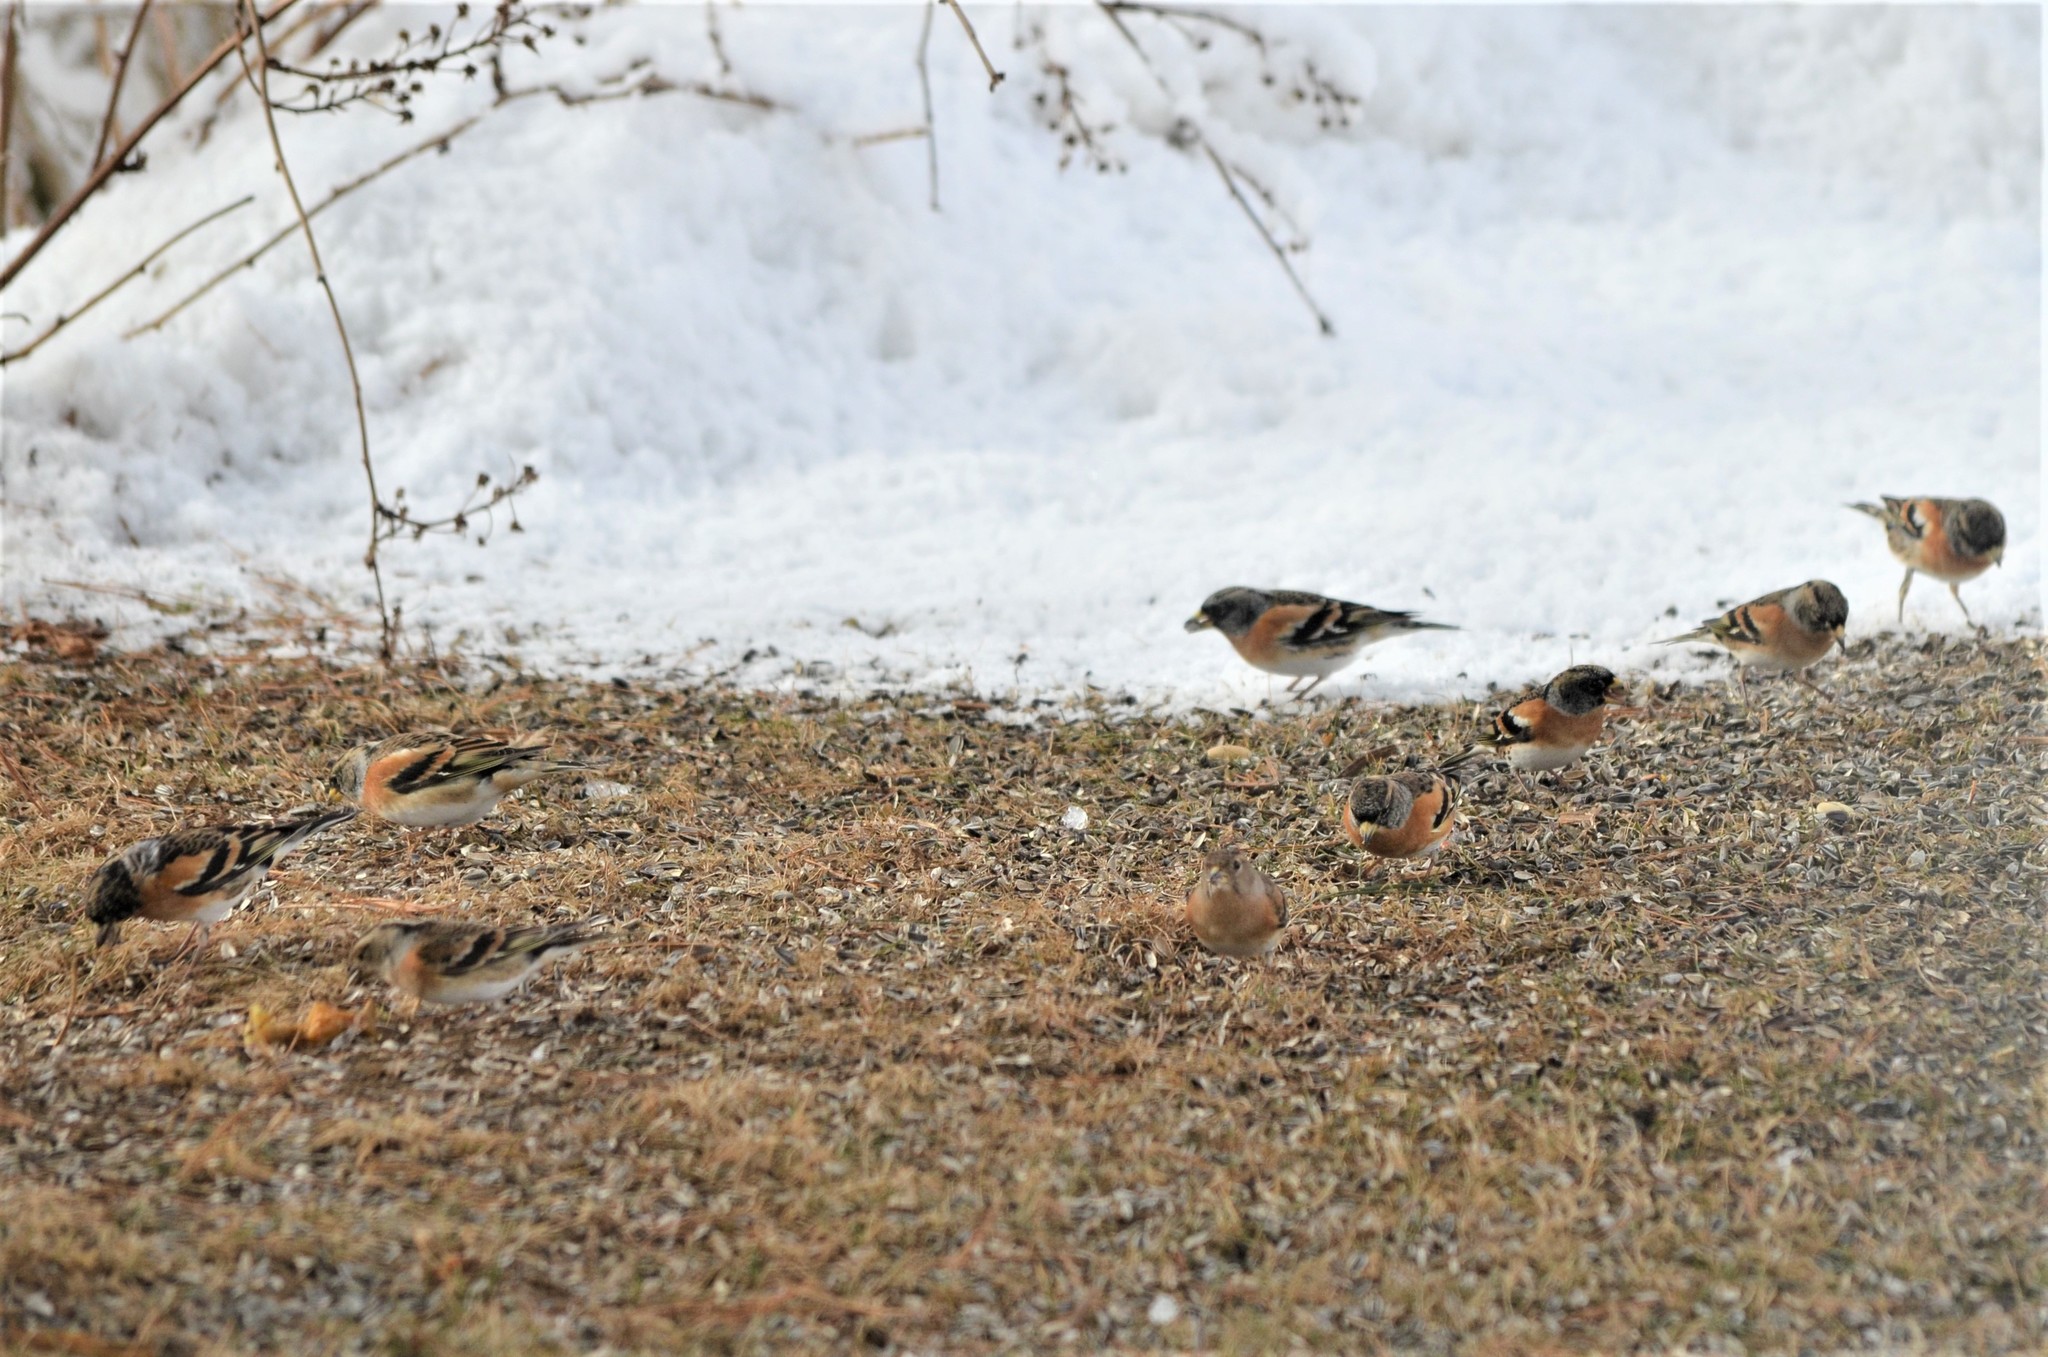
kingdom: Animalia
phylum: Chordata
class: Aves
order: Passeriformes
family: Fringillidae
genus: Fringilla
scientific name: Fringilla montifringilla
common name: Brambling
